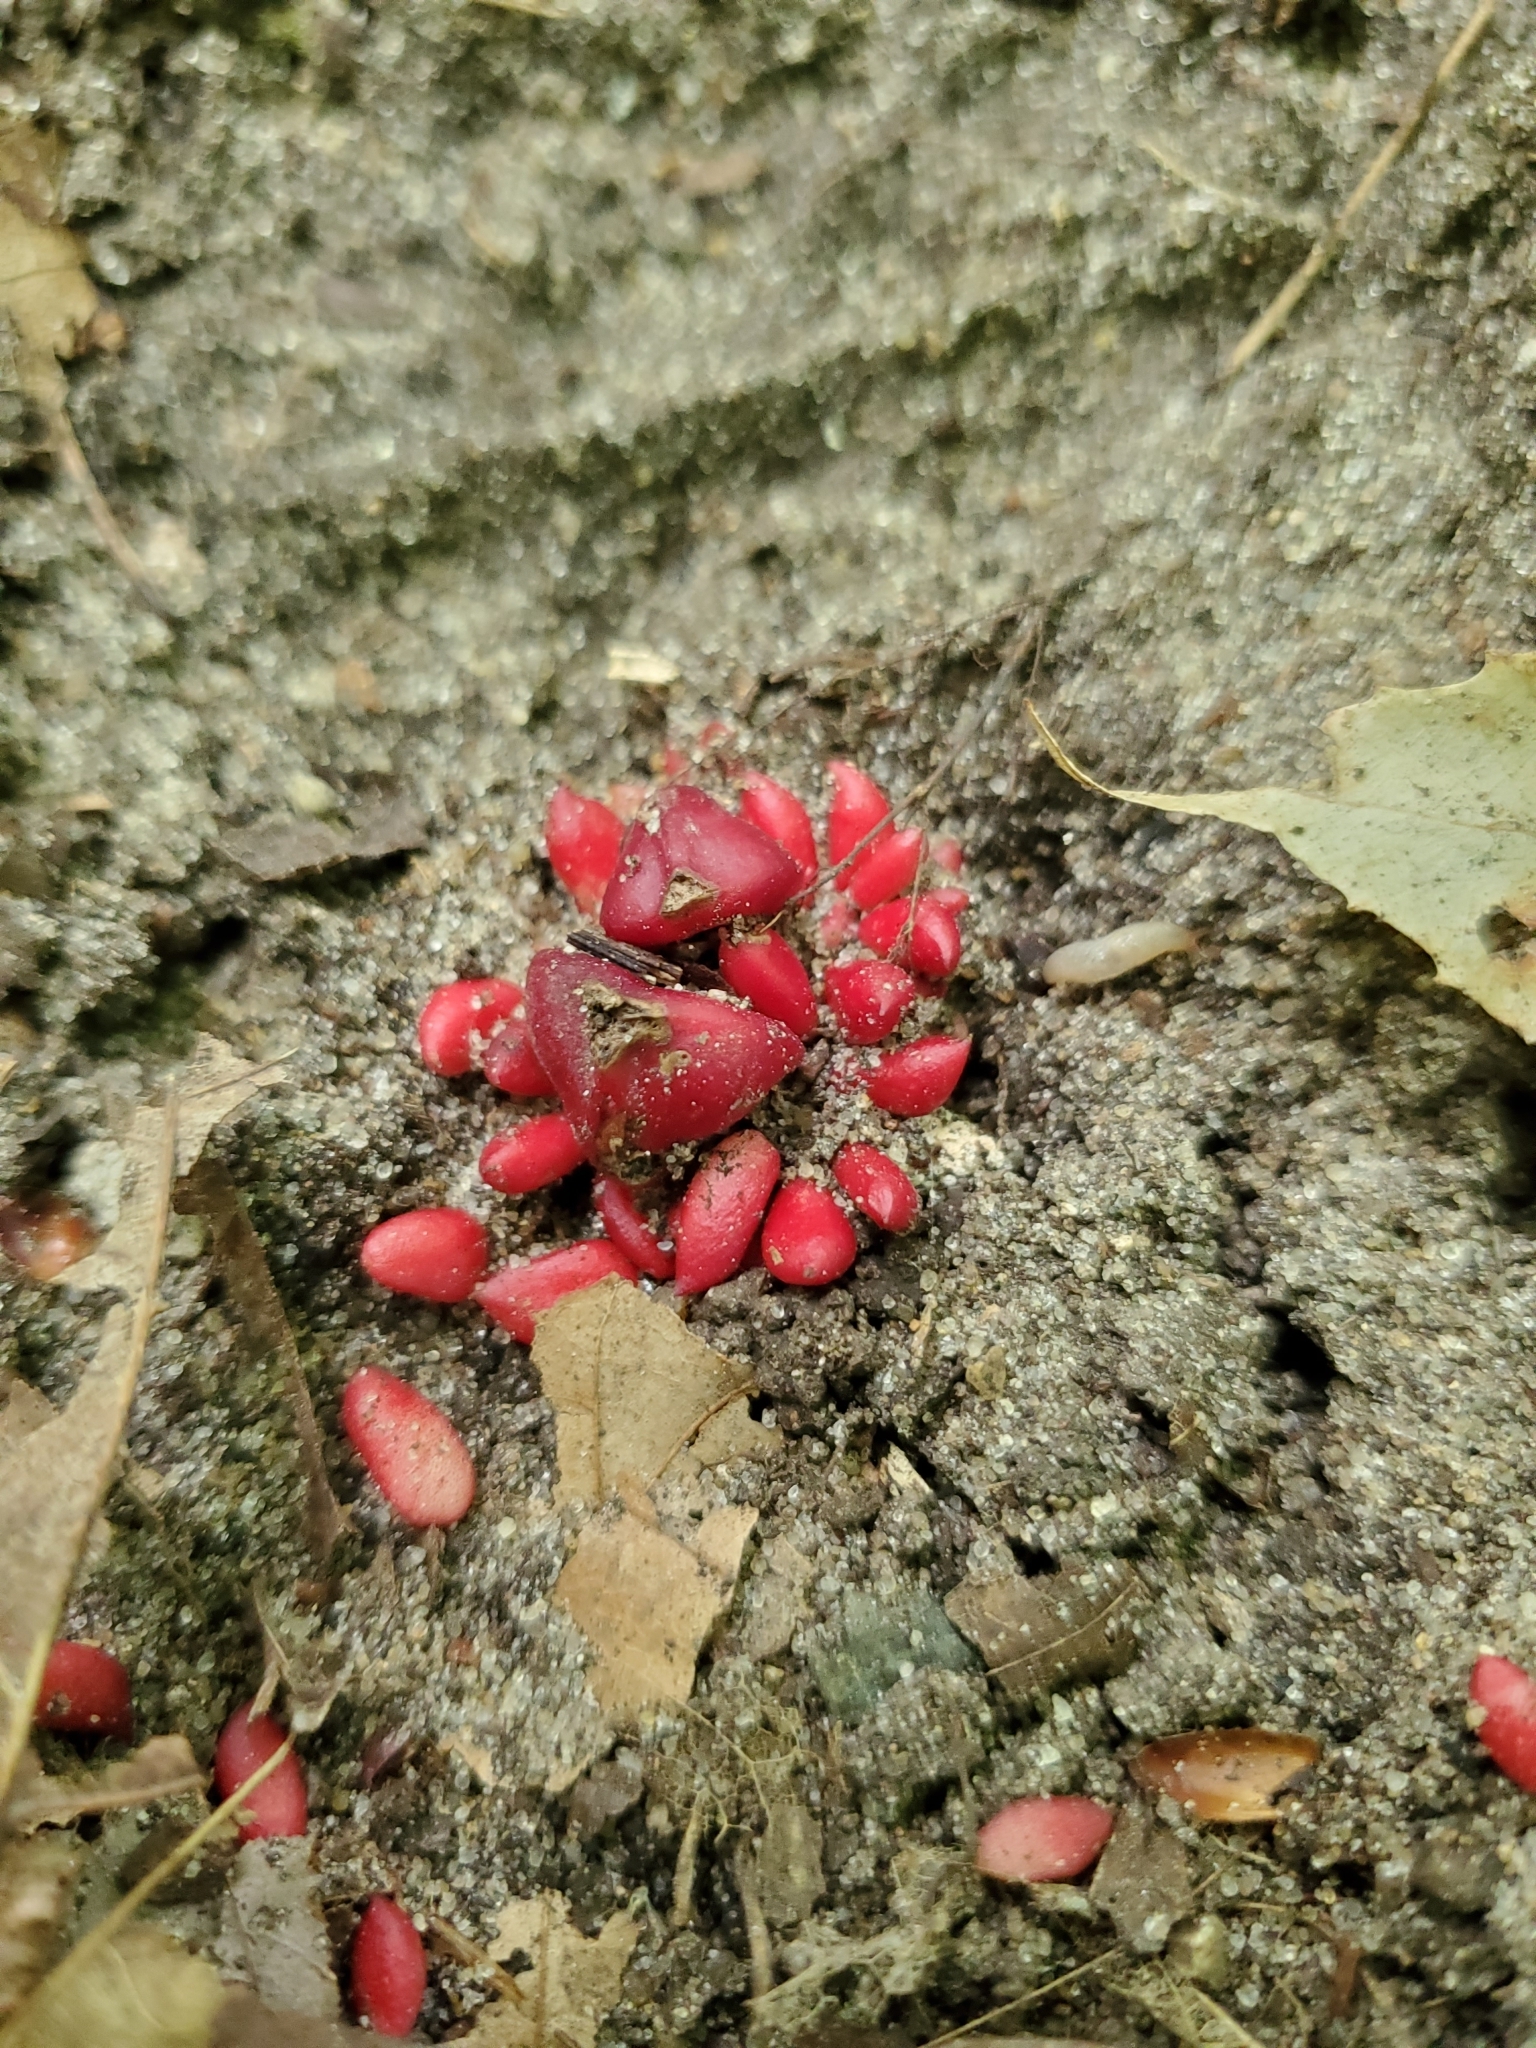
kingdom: Plantae
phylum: Tracheophyta
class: Magnoliopsida
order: Ranunculales
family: Papaveraceae
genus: Dicentra
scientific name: Dicentra cucullaria
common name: Dutchman's breeches
